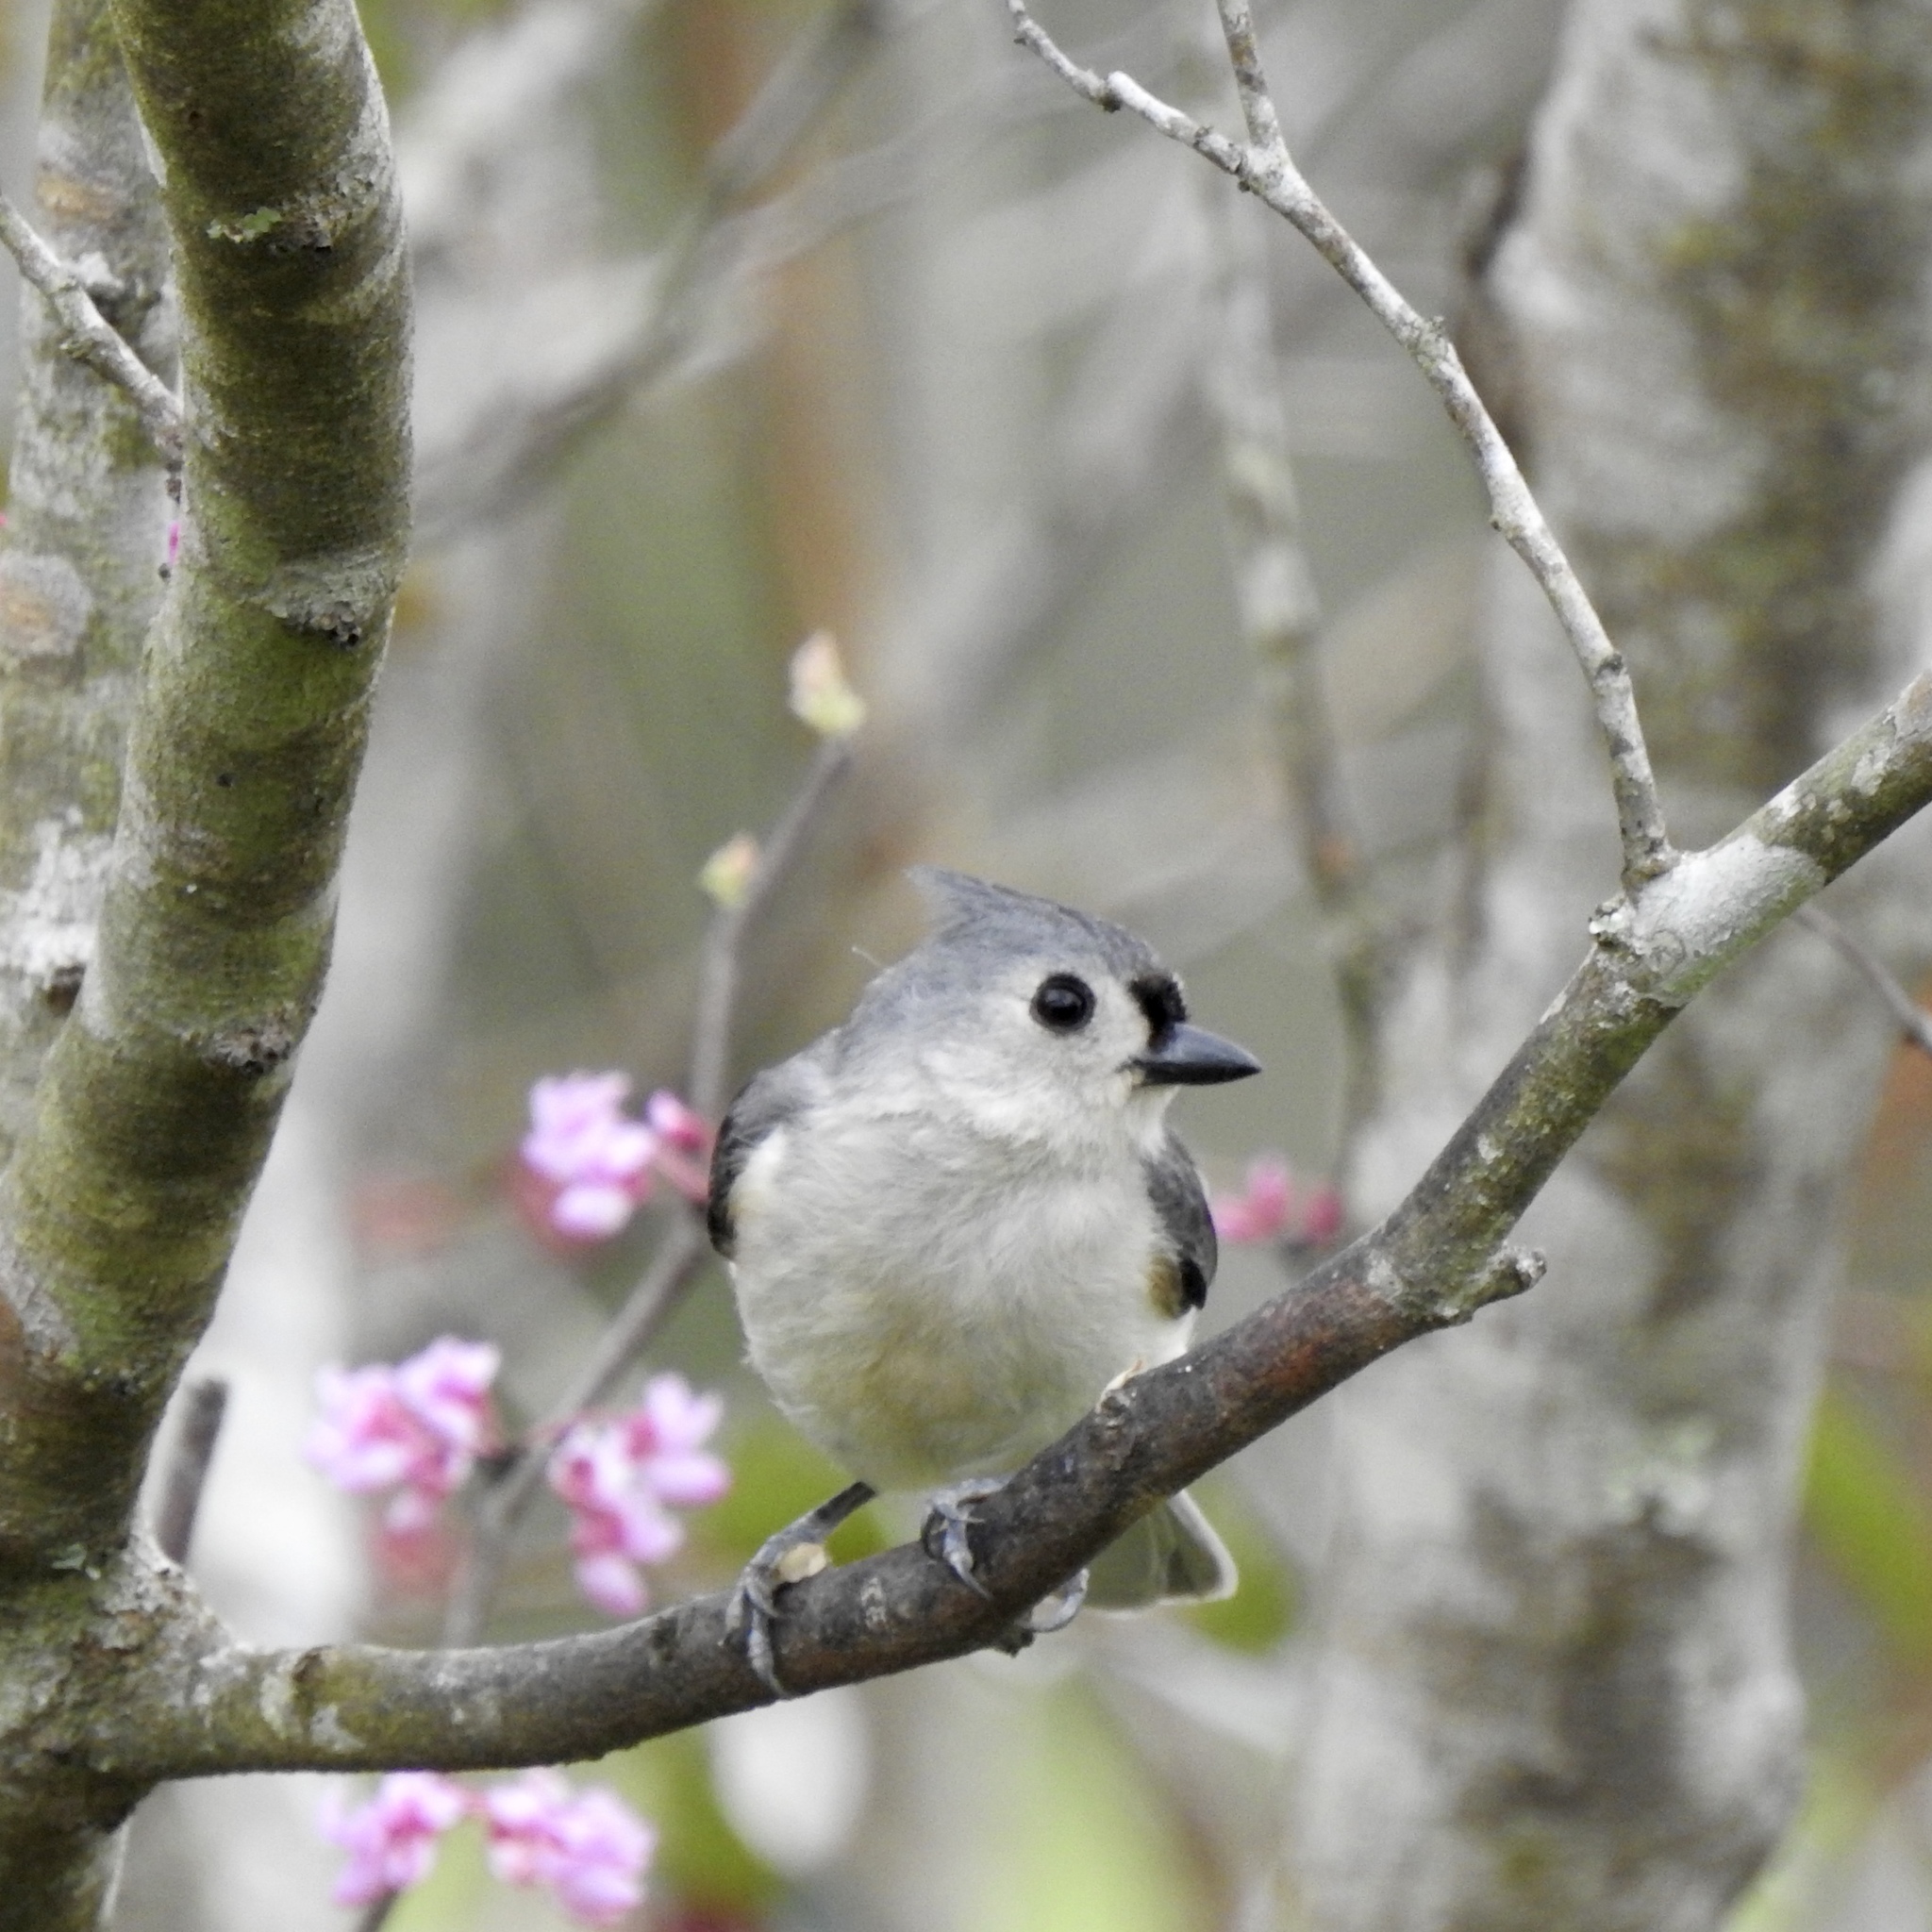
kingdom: Animalia
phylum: Chordata
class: Aves
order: Passeriformes
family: Paridae
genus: Baeolophus
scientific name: Baeolophus bicolor
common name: Tufted titmouse
